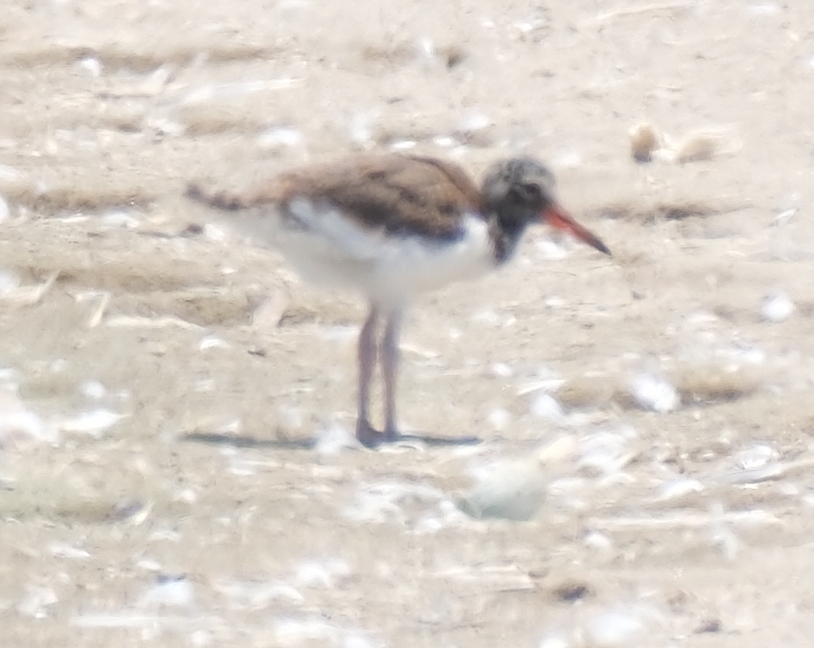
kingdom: Animalia
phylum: Chordata
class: Aves
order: Charadriiformes
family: Haematopodidae
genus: Haematopus
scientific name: Haematopus palliatus
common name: American oystercatcher
